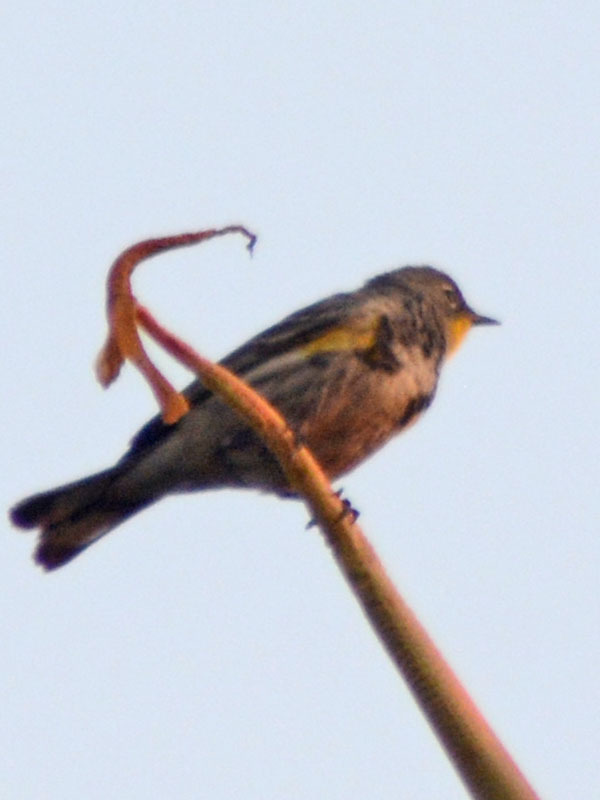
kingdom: Animalia
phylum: Chordata
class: Aves
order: Passeriformes
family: Parulidae
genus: Setophaga
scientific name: Setophaga auduboni
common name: Audubon's warbler
